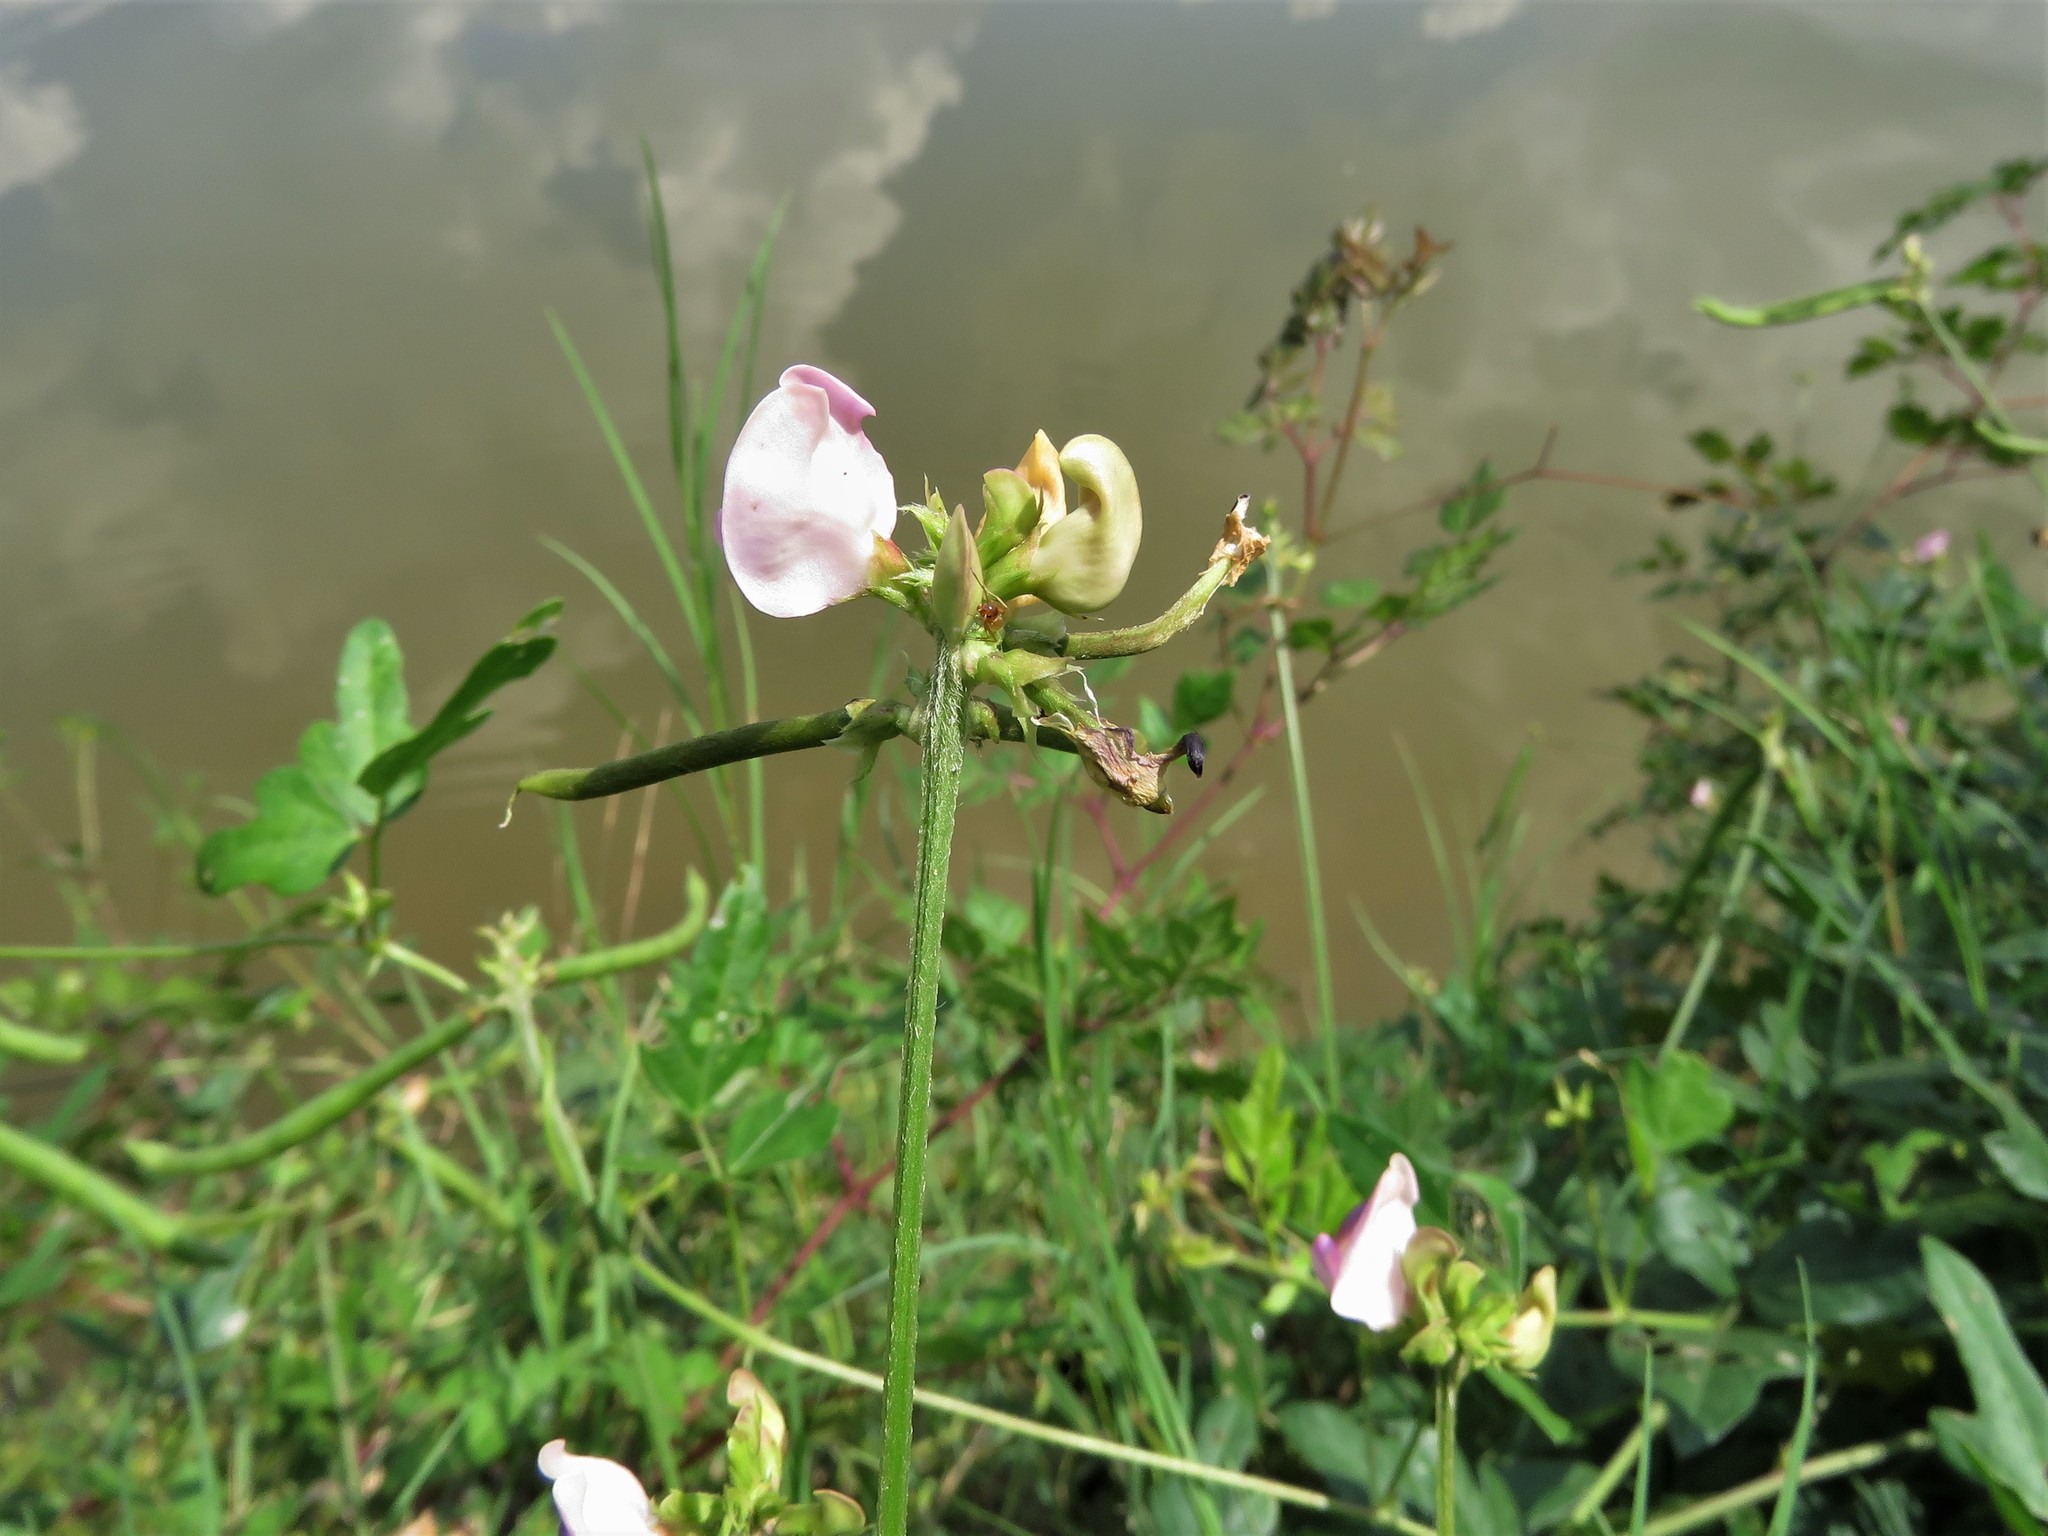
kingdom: Plantae
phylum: Tracheophyta
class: Magnoliopsida
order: Fabales
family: Fabaceae
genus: Strophostyles
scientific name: Strophostyles helvola
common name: Trailing wild bean
